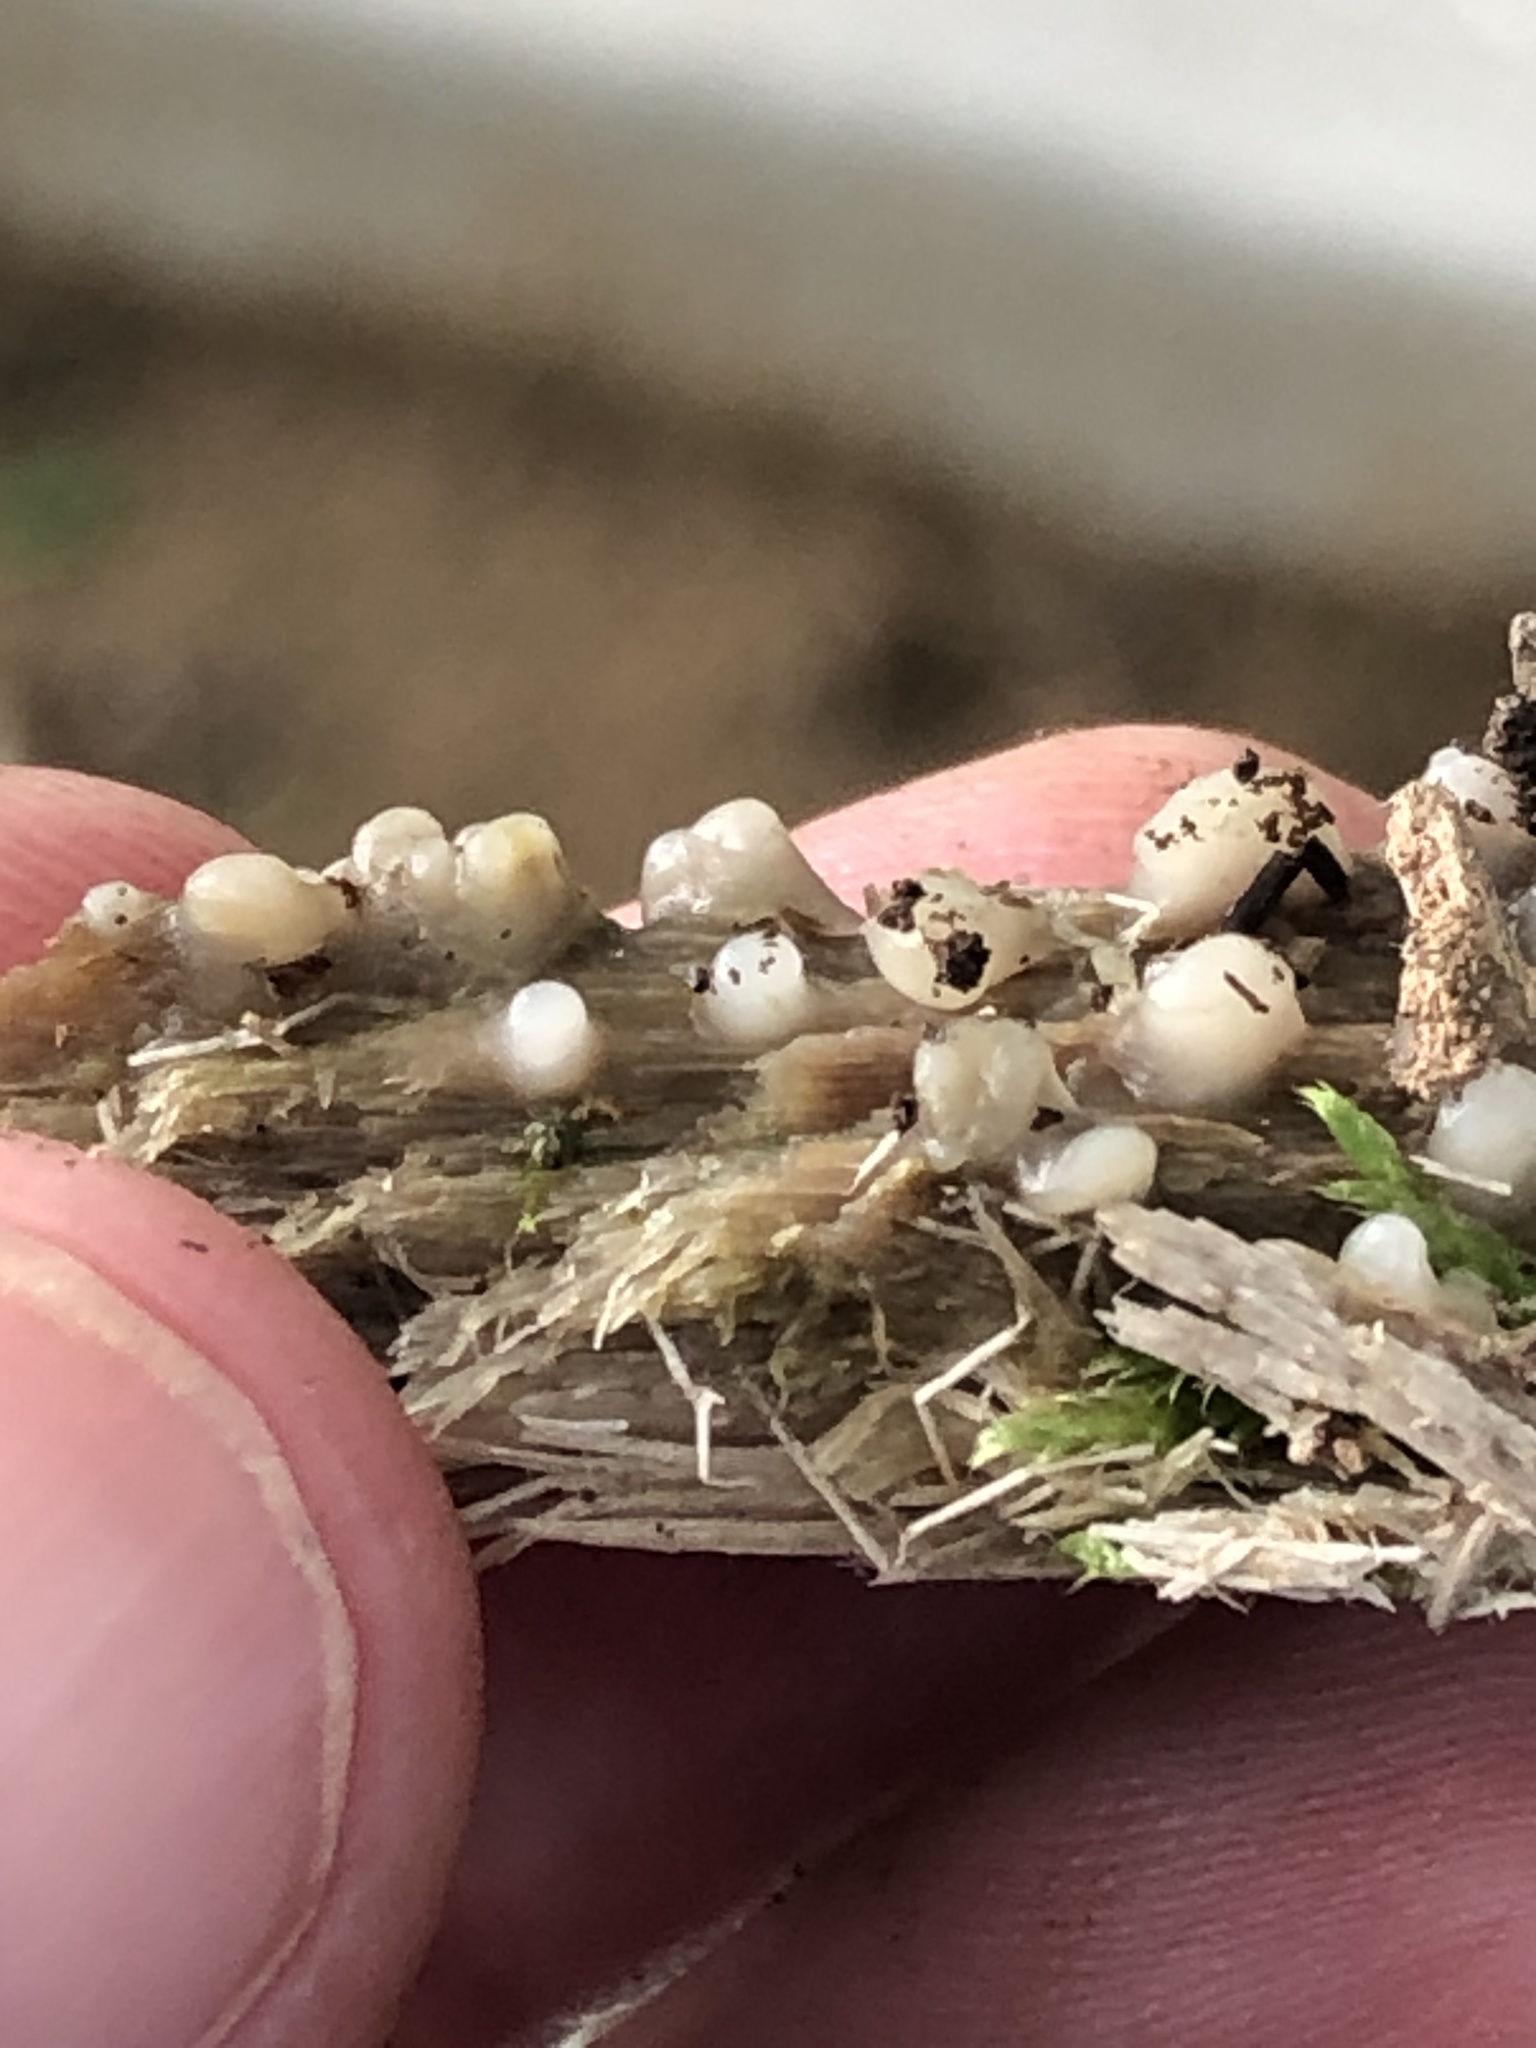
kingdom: Fungi
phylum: Basidiomycota
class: Atractiellomycetes
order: Atractiellales
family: Phleogenaceae
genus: Helicogloea
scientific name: Helicogloea compressa
